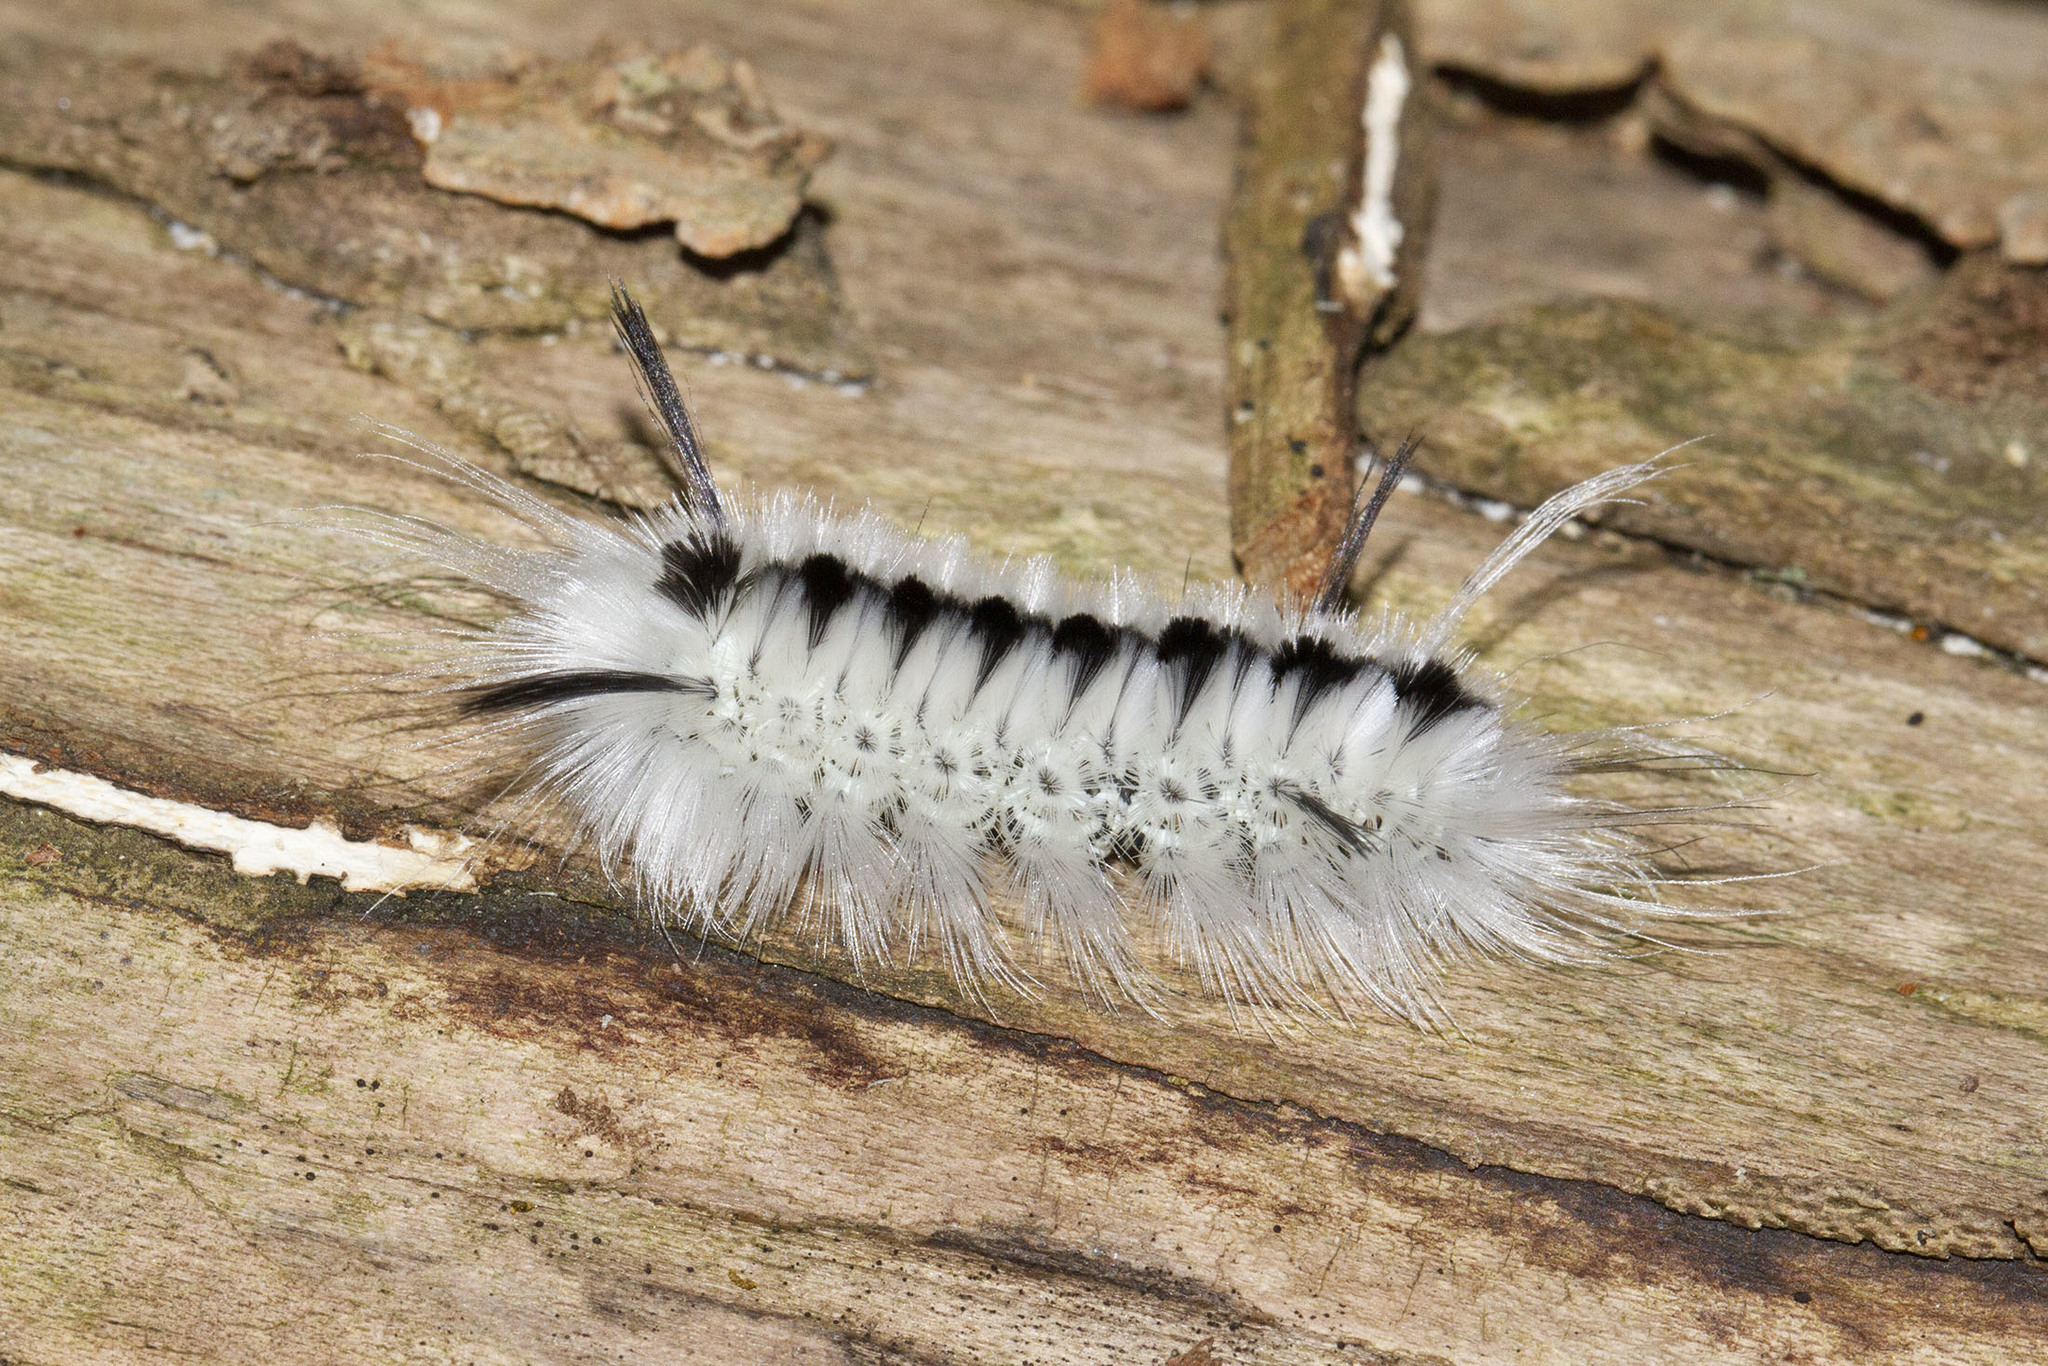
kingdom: Animalia
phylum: Arthropoda
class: Insecta
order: Lepidoptera
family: Erebidae
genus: Lophocampa
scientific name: Lophocampa caryae
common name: Hickory tussock moth
